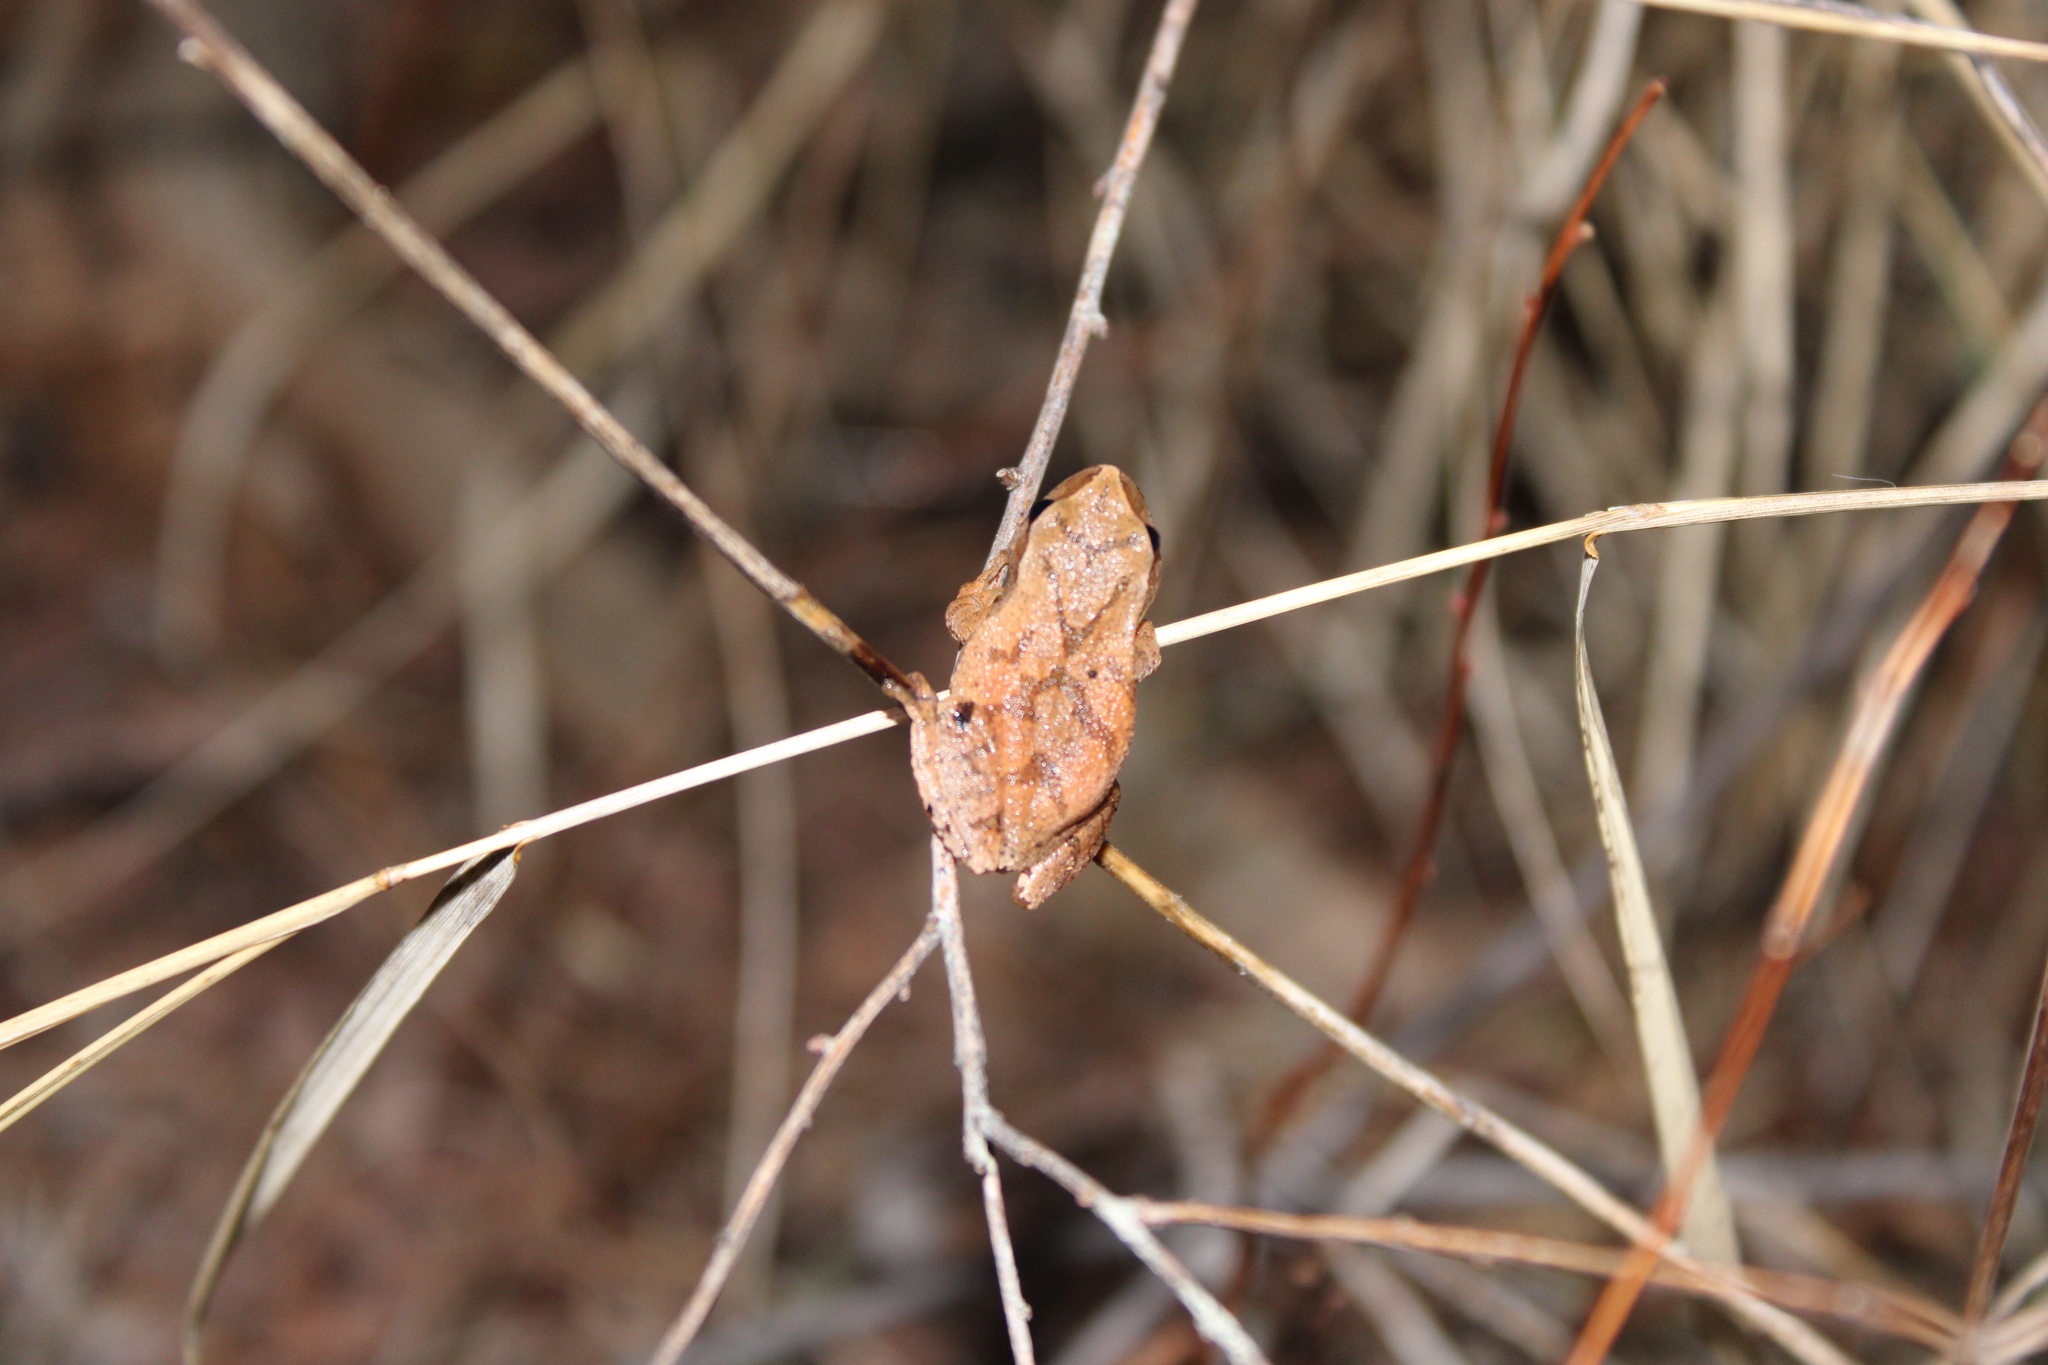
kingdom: Animalia
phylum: Chordata
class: Amphibia
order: Anura
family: Hylidae
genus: Pseudacris
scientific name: Pseudacris crucifer
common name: Spring peeper
